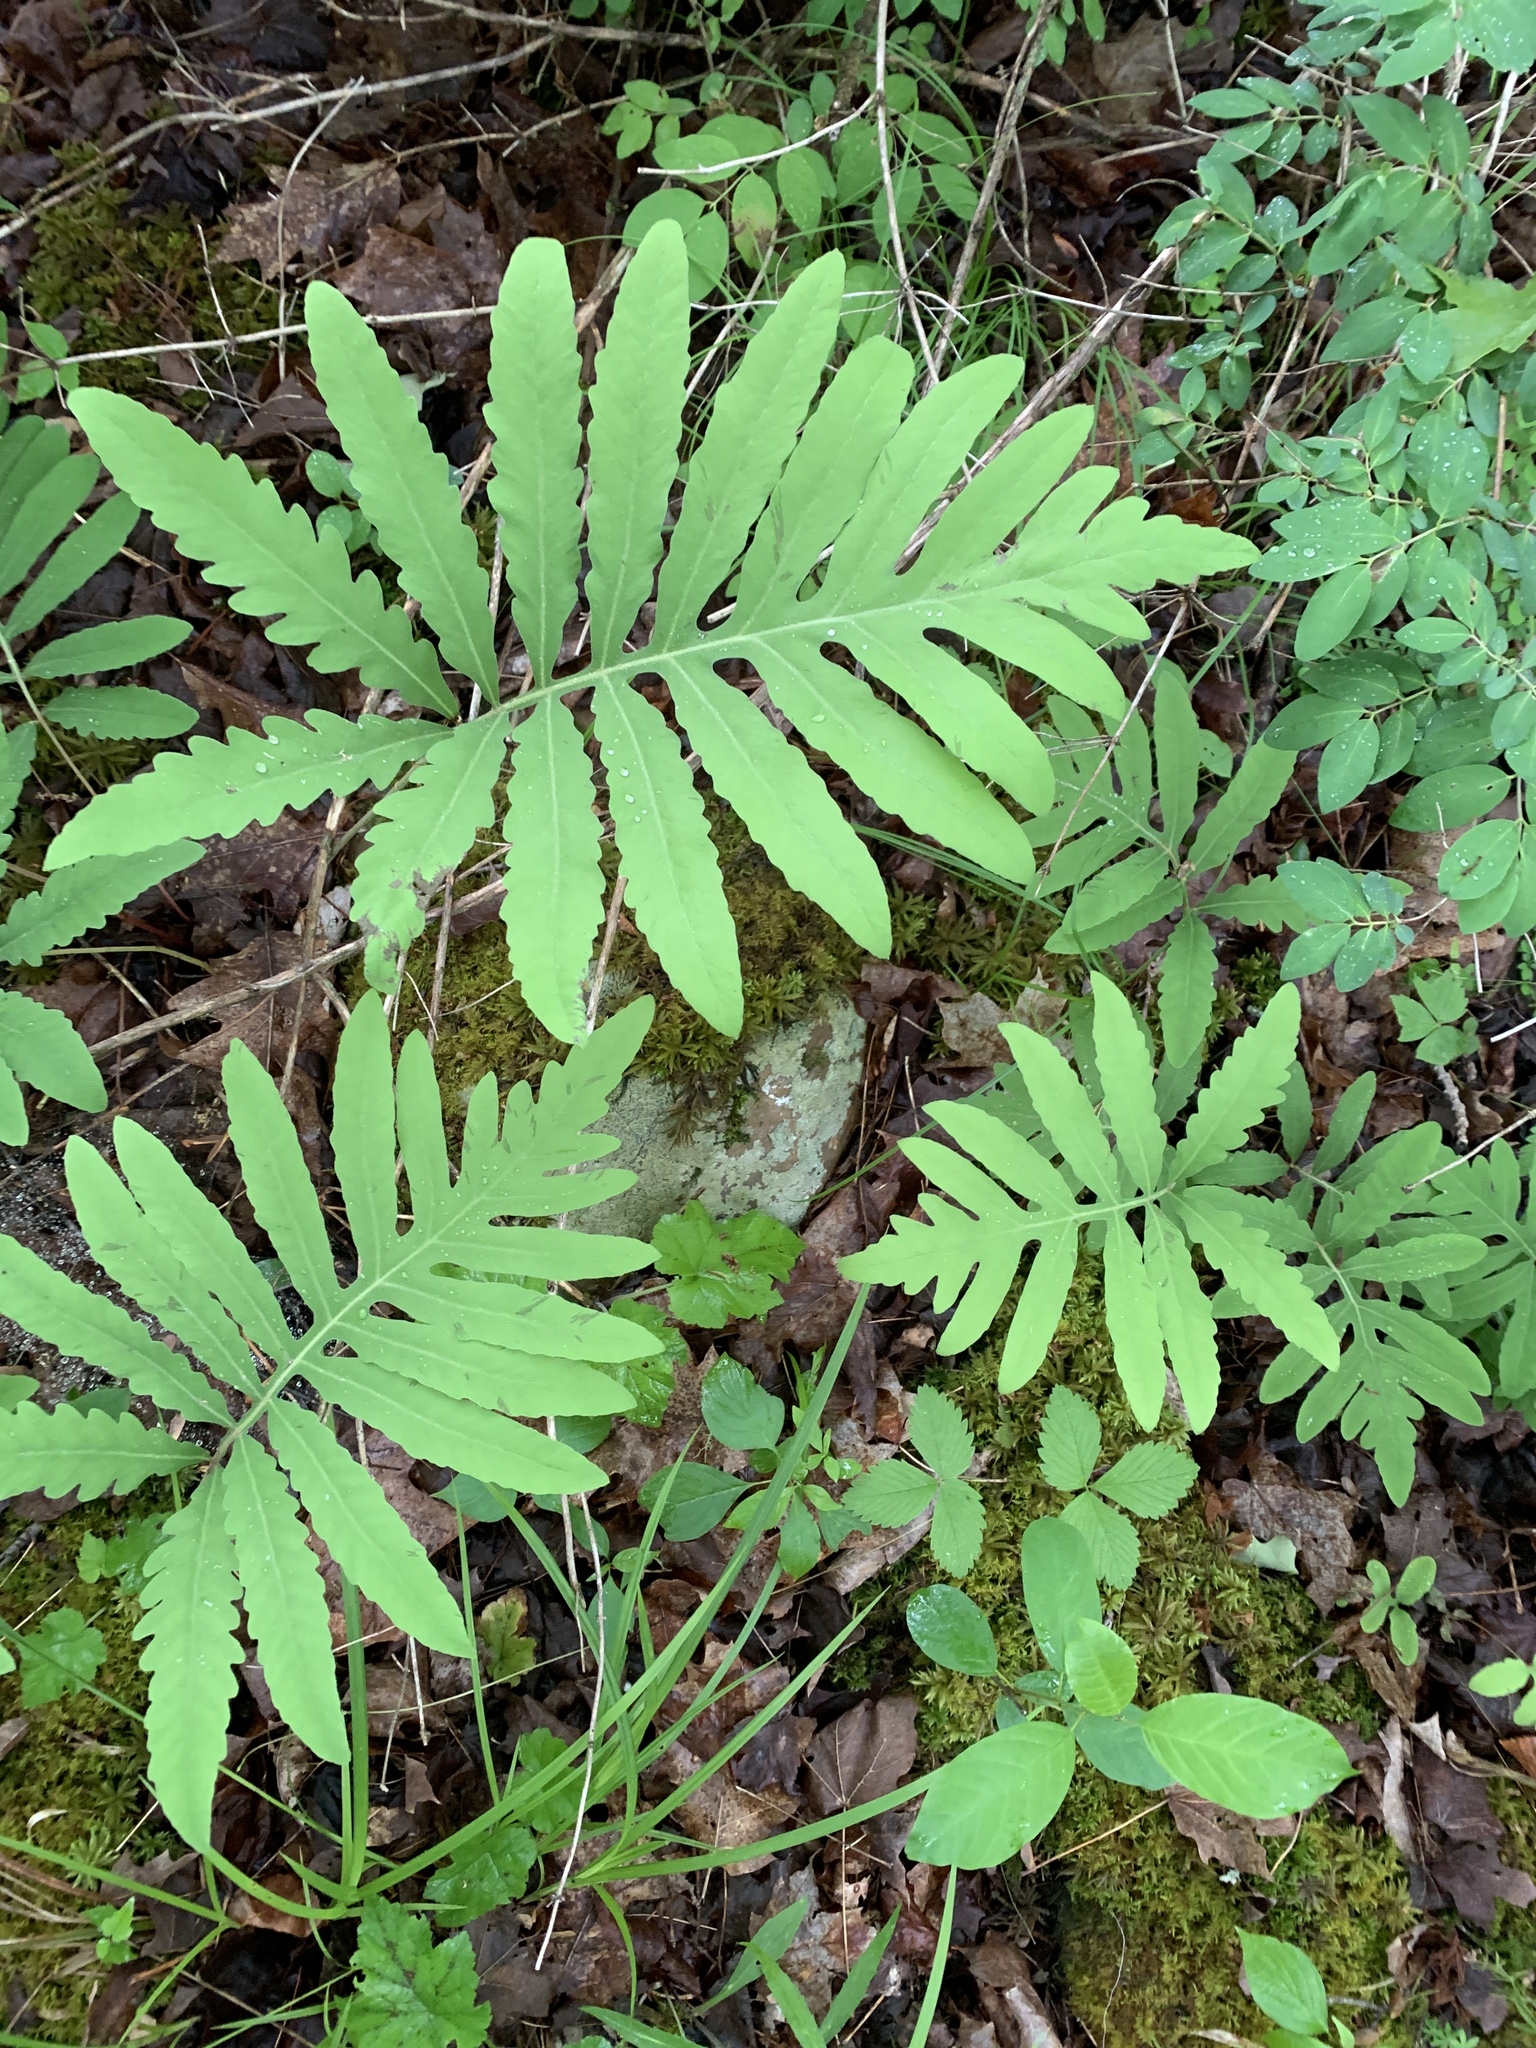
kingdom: Plantae
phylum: Tracheophyta
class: Polypodiopsida
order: Polypodiales
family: Onocleaceae
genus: Onoclea
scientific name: Onoclea sensibilis
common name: Sensitive fern
